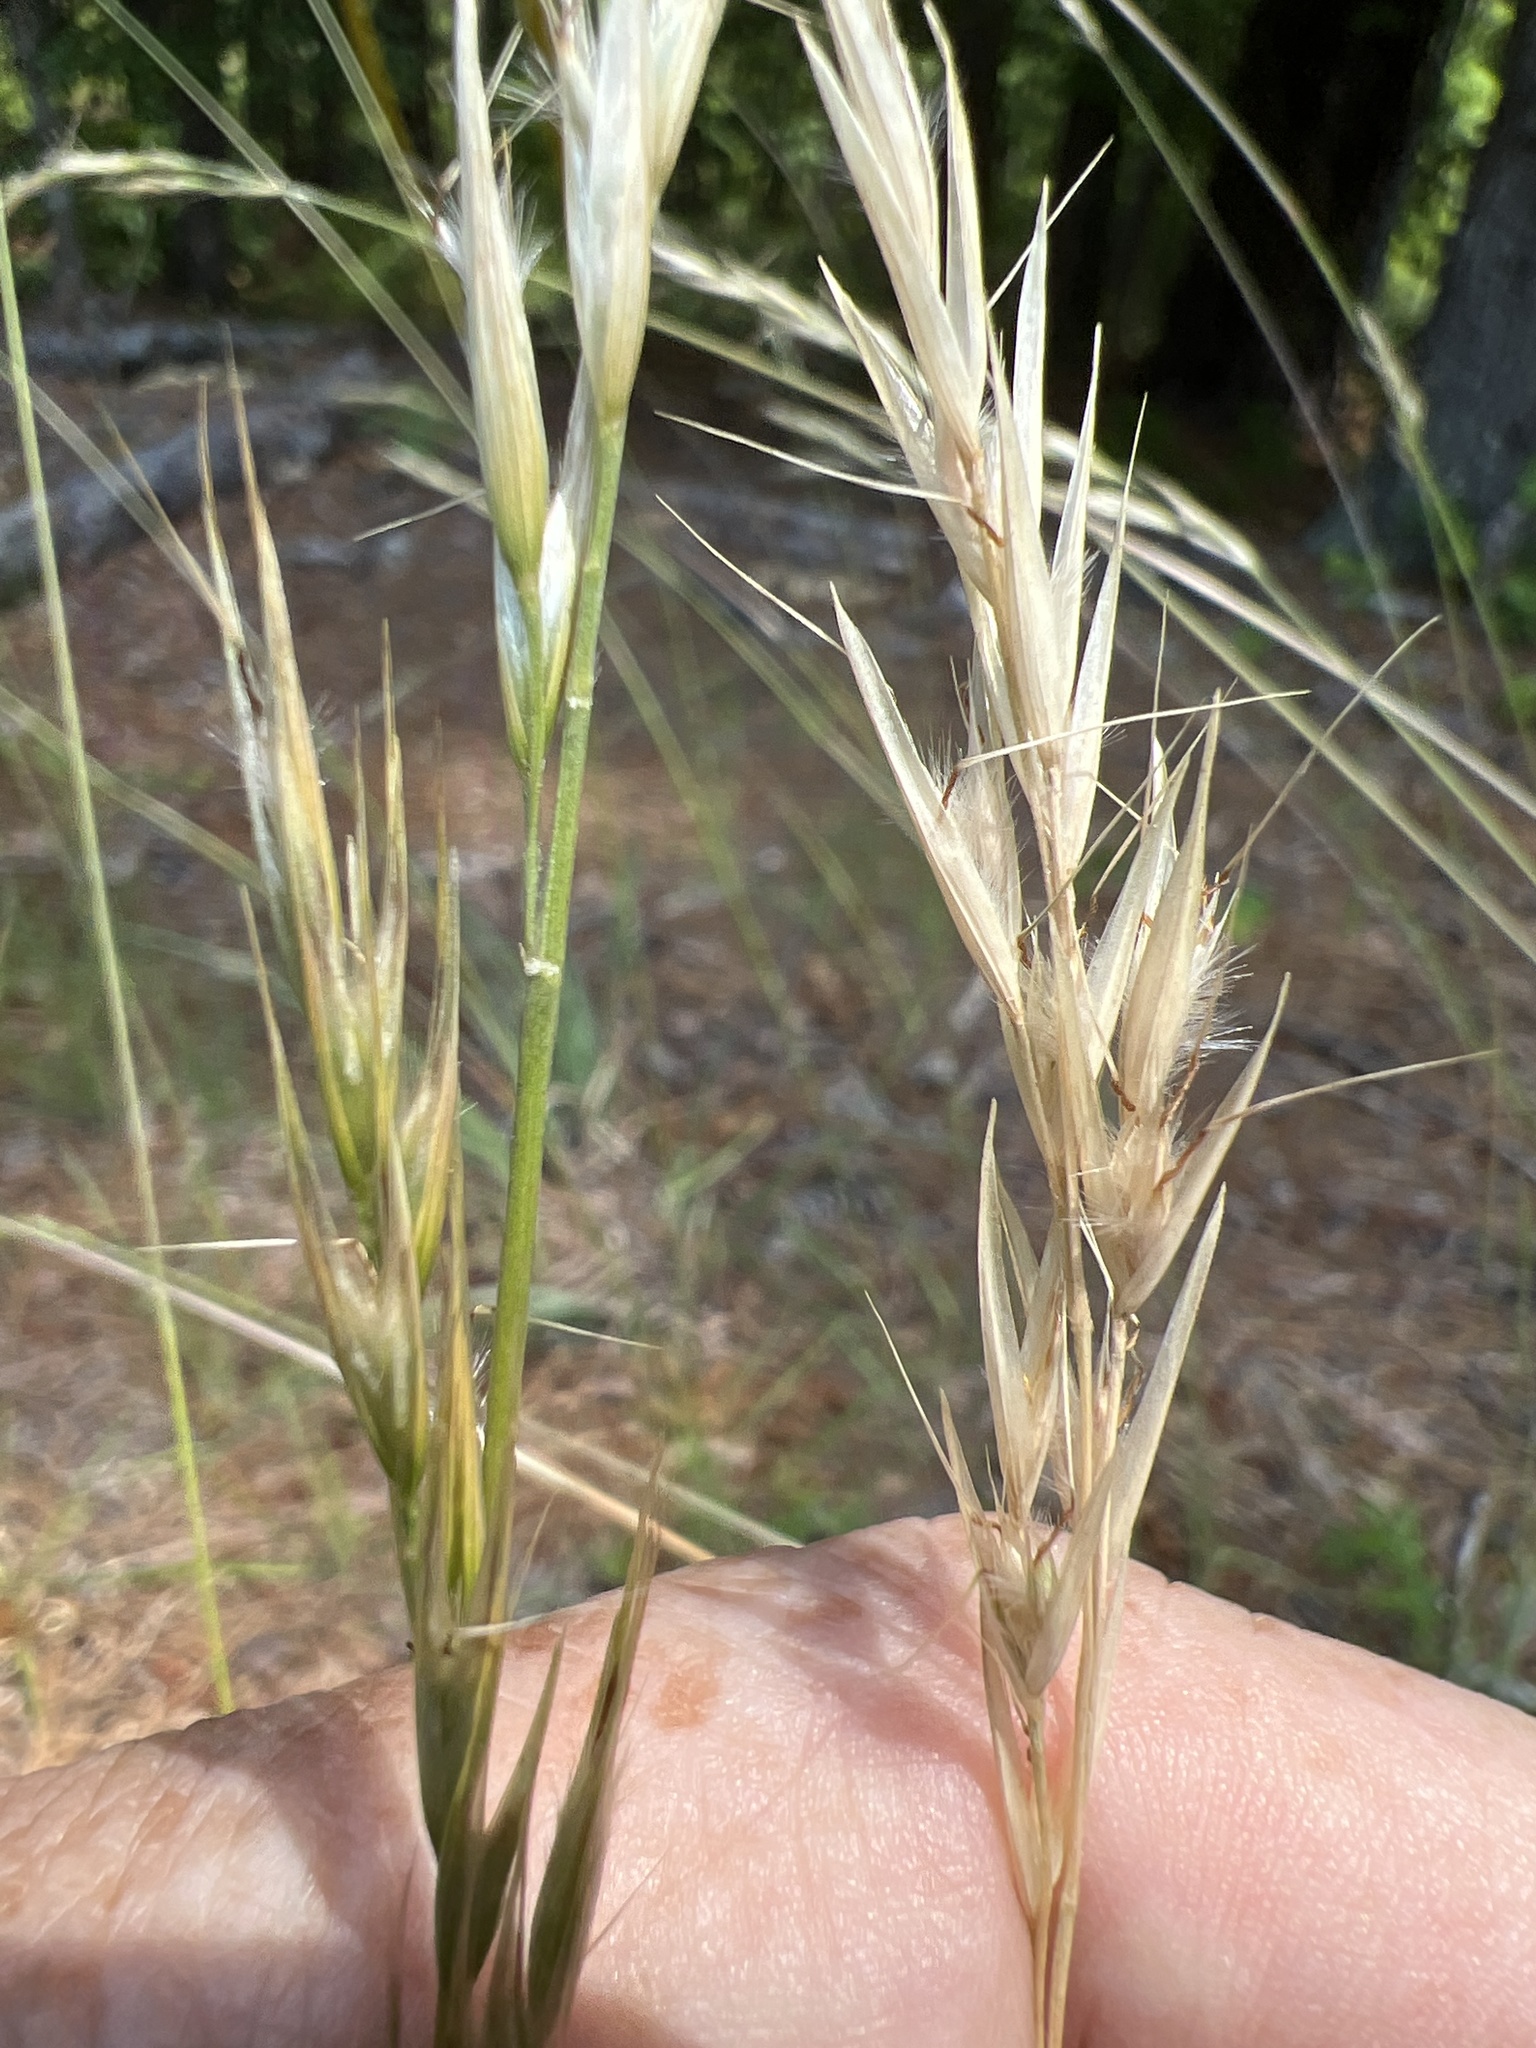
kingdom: Plantae
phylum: Tracheophyta
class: Liliopsida
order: Poales
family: Poaceae
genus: Danthonia
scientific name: Danthonia sericea
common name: Downy danthonia
